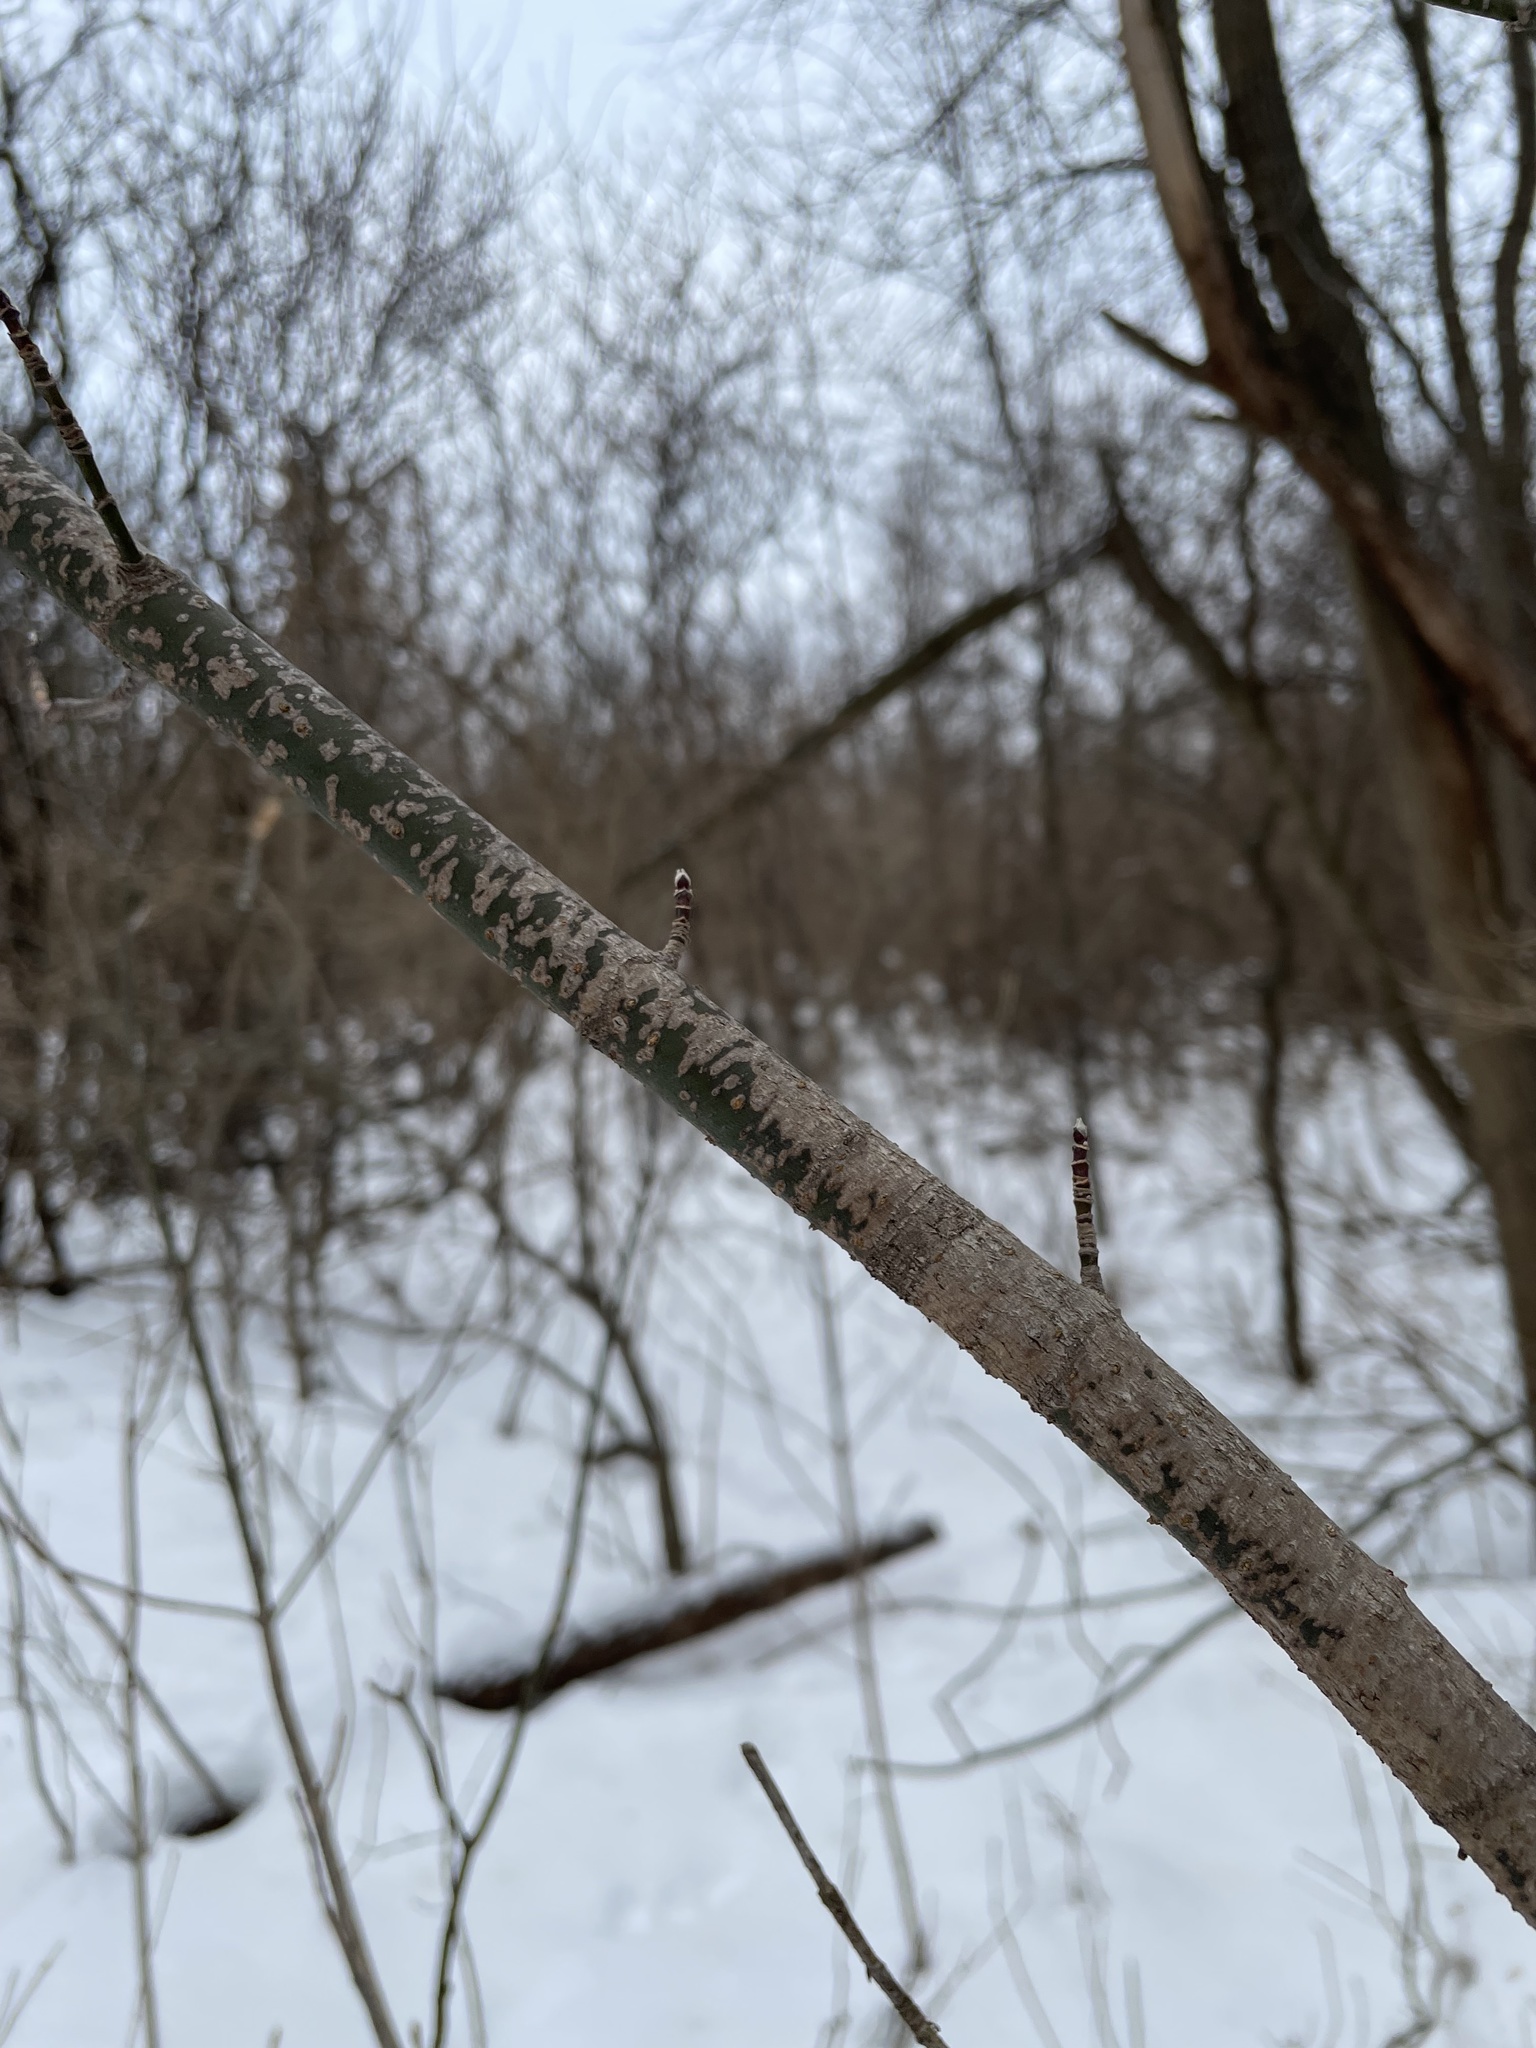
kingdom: Plantae
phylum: Tracheophyta
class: Magnoliopsida
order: Sapindales
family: Sapindaceae
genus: Acer
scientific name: Acer negundo
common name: Ashleaf maple
